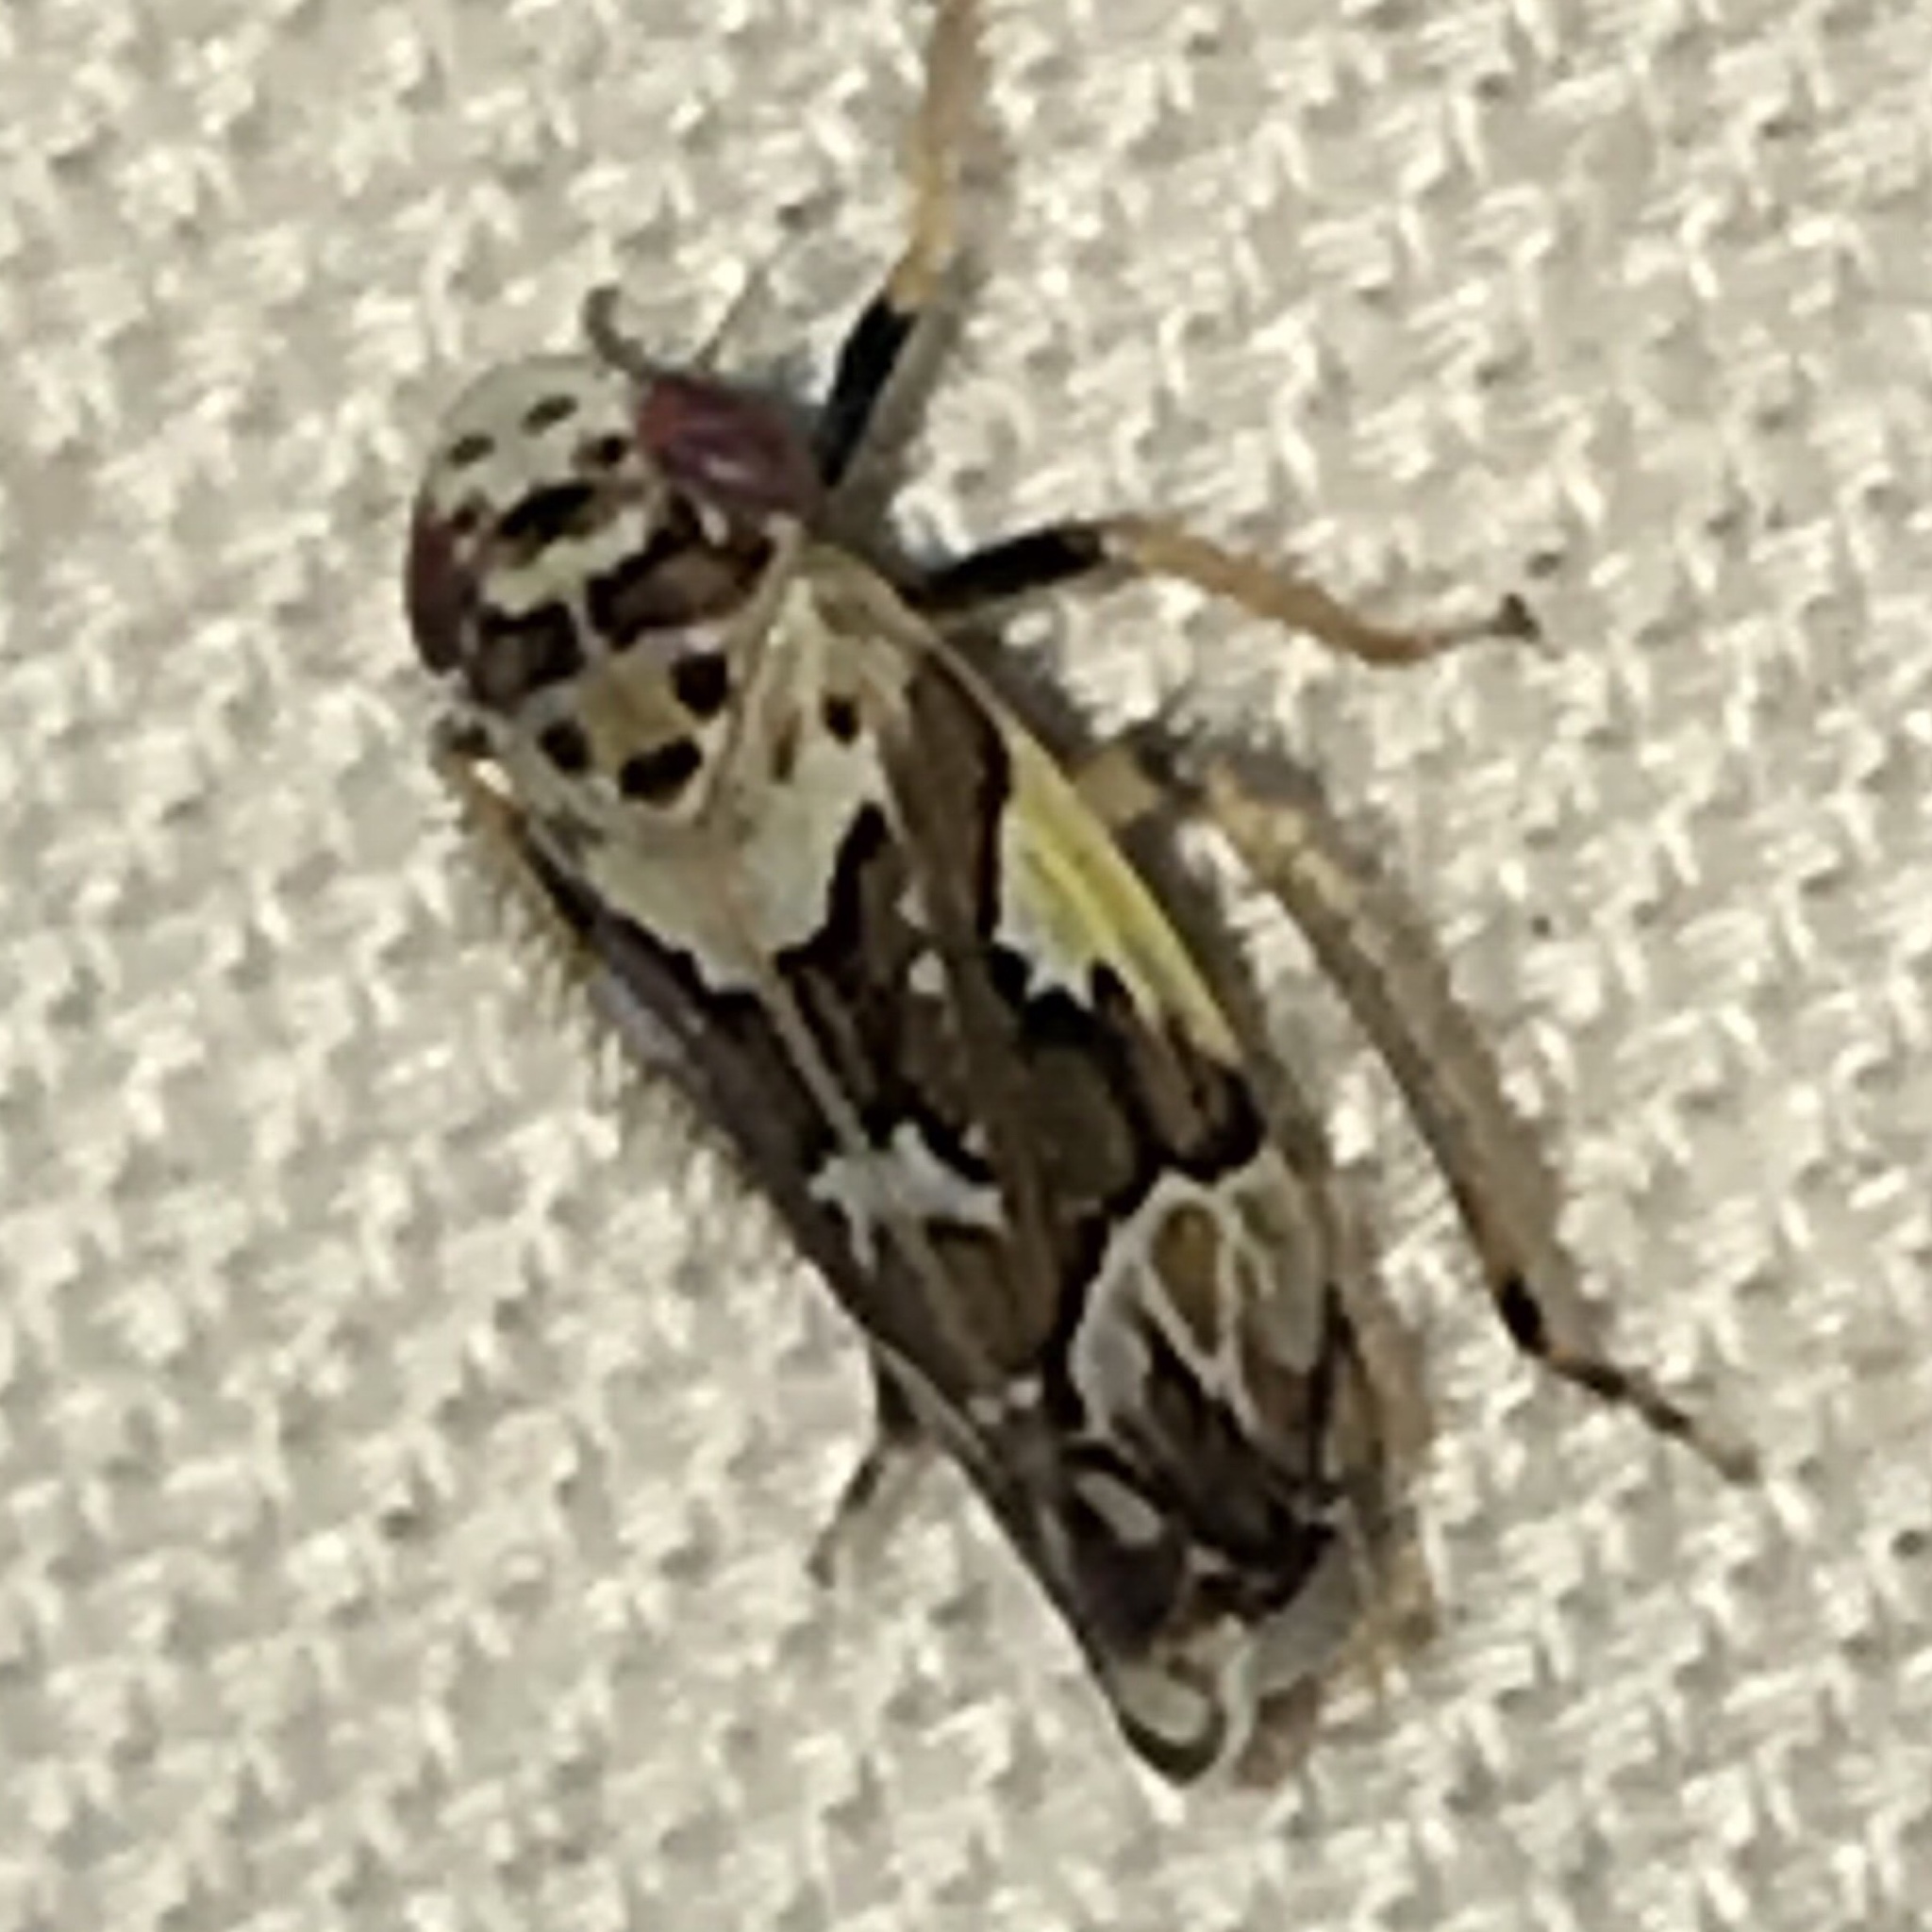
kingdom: Animalia
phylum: Arthropoda
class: Insecta
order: Hemiptera
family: Cicadellidae
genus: Sanctanus
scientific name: Sanctanus cruciatus
